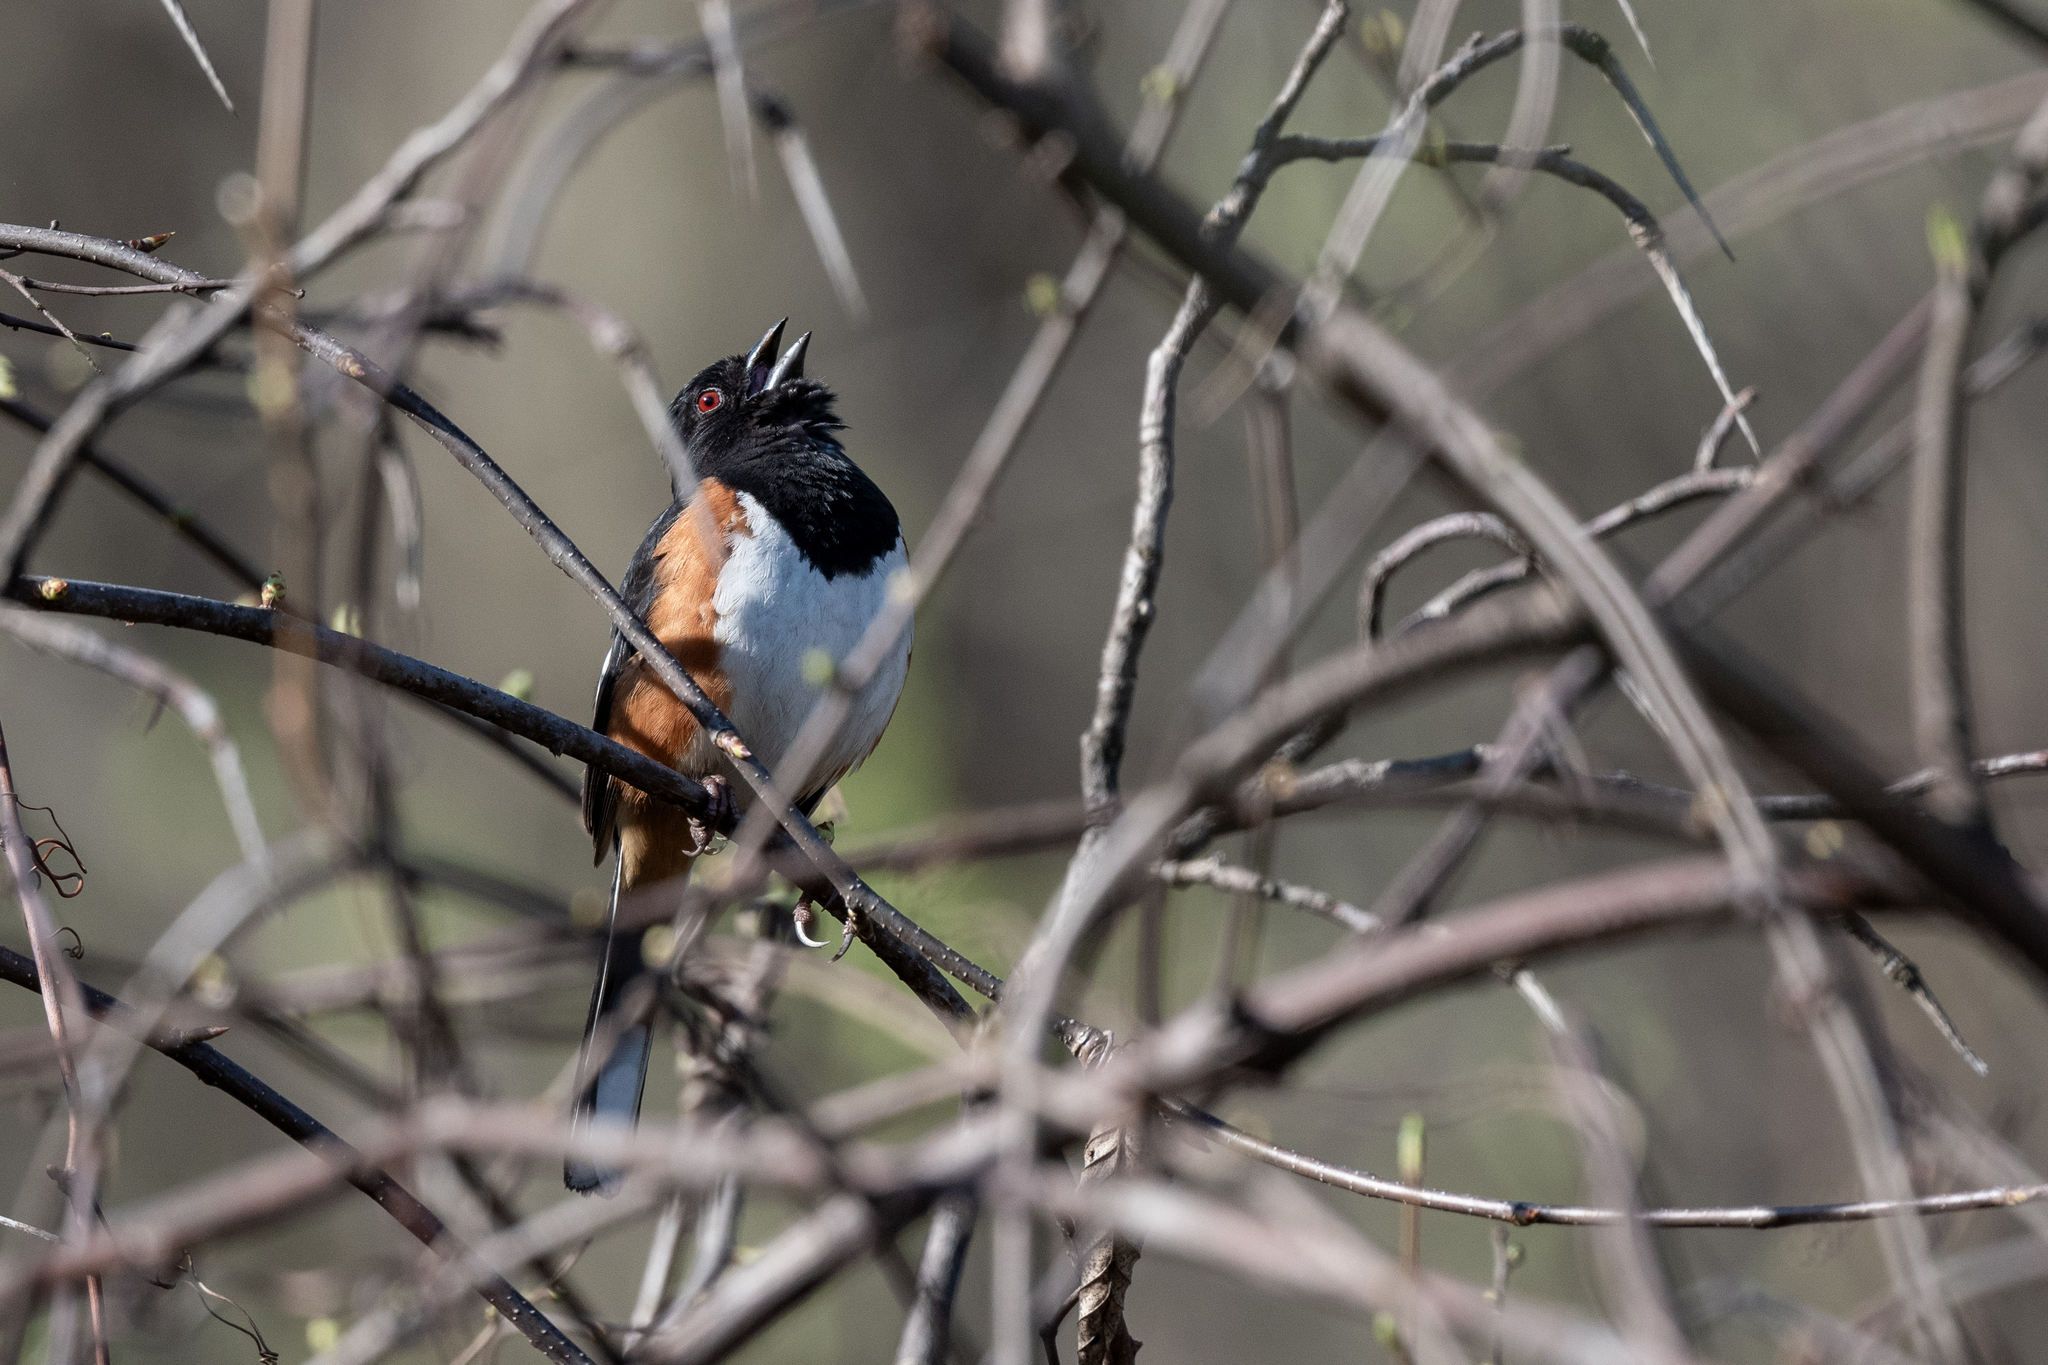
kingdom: Animalia
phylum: Chordata
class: Aves
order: Passeriformes
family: Passerellidae
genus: Pipilo
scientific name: Pipilo erythrophthalmus
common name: Eastern towhee
